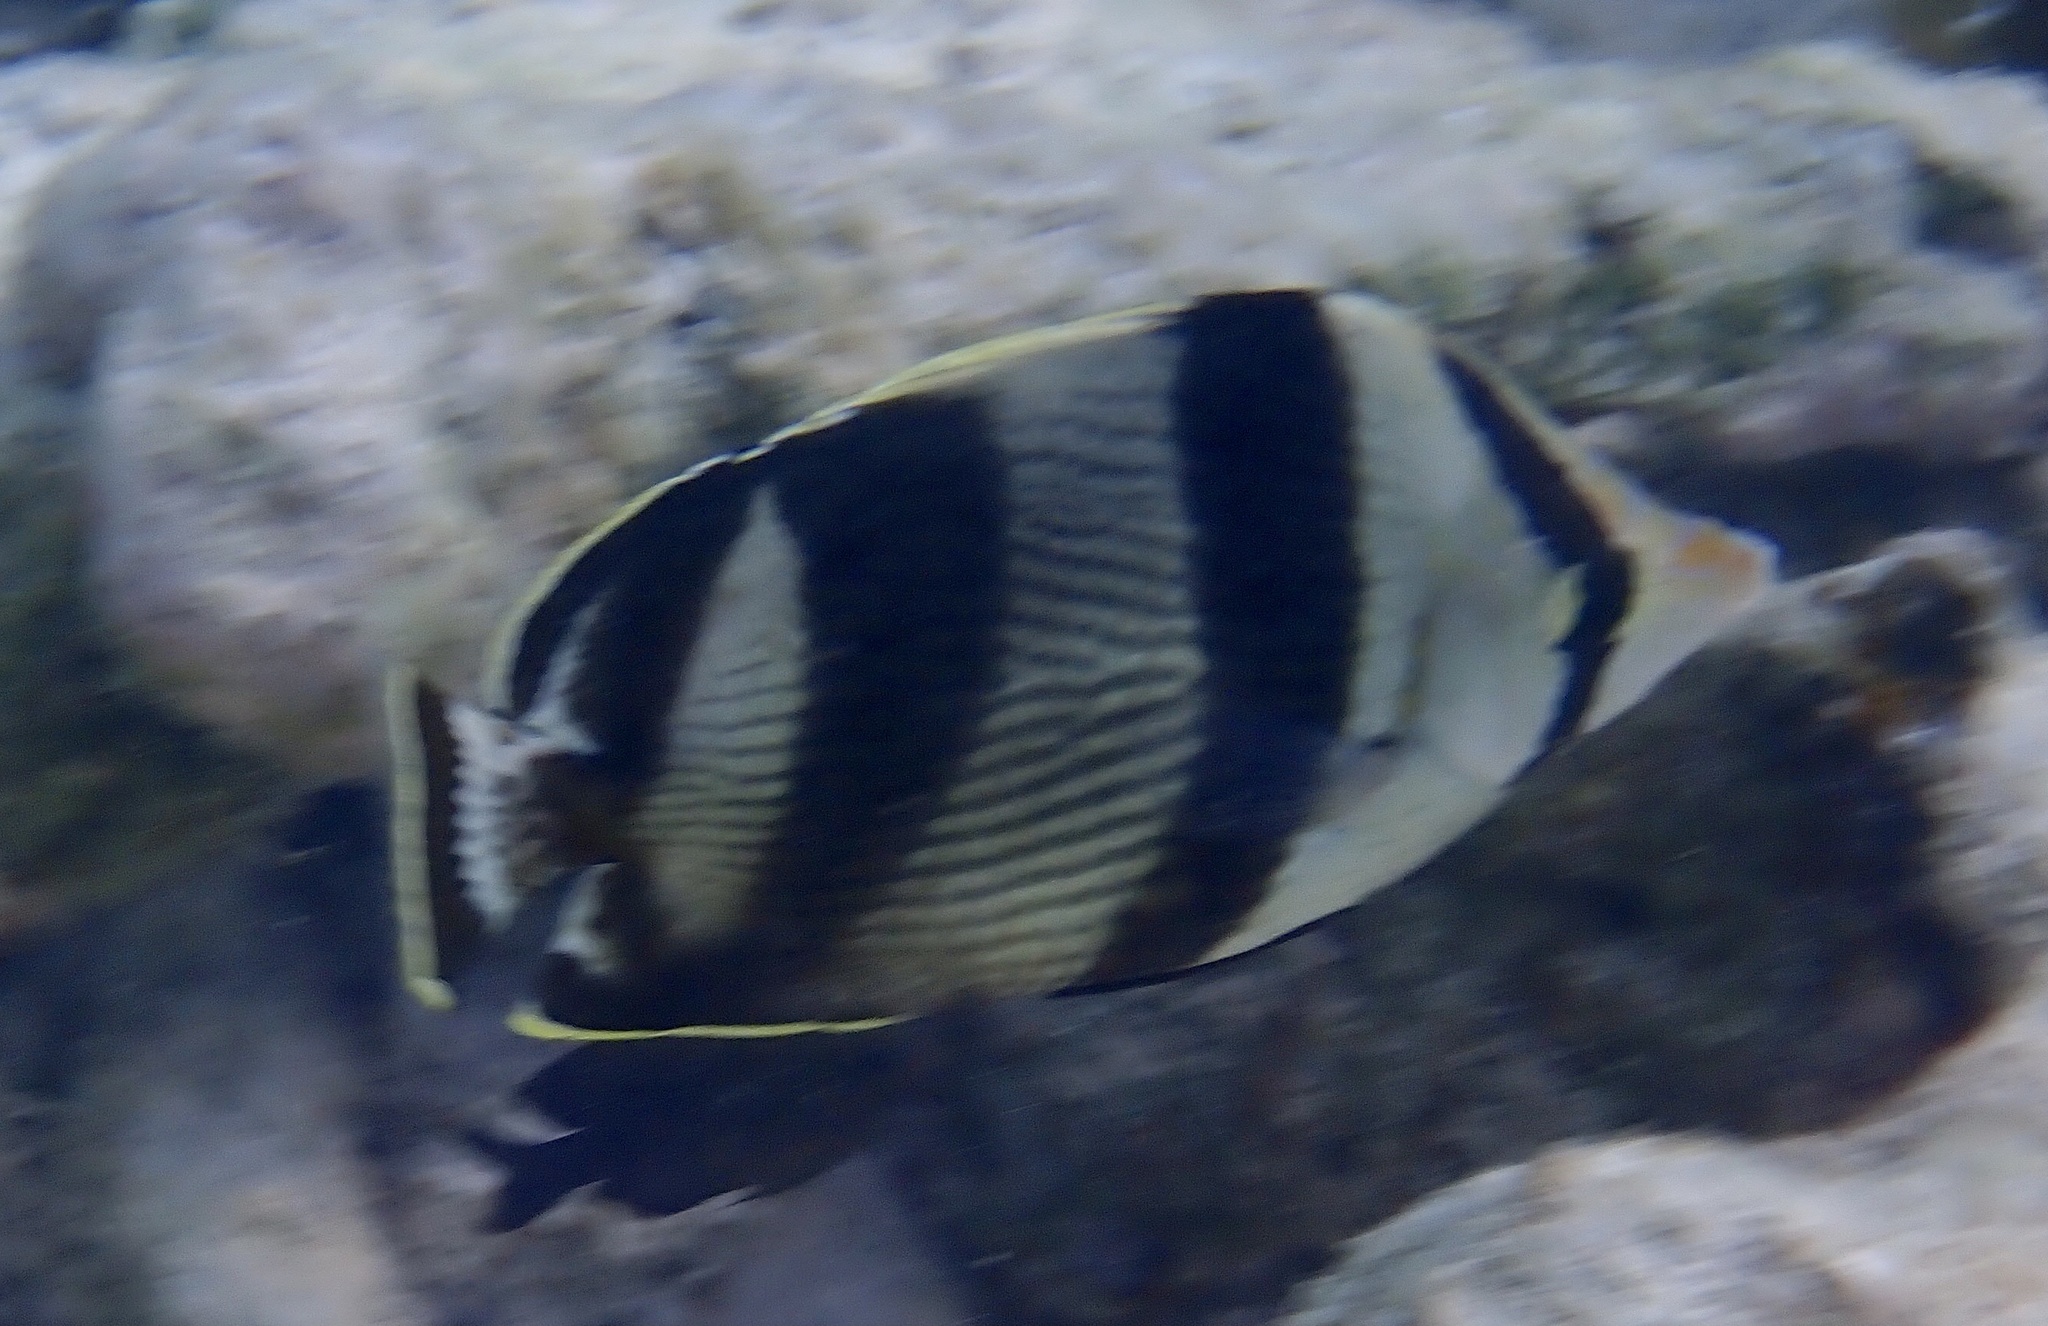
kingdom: Animalia
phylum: Chordata
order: Perciformes
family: Chaetodontidae
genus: Chaetodon
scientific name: Chaetodon striatus
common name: Banded butterflyfish
